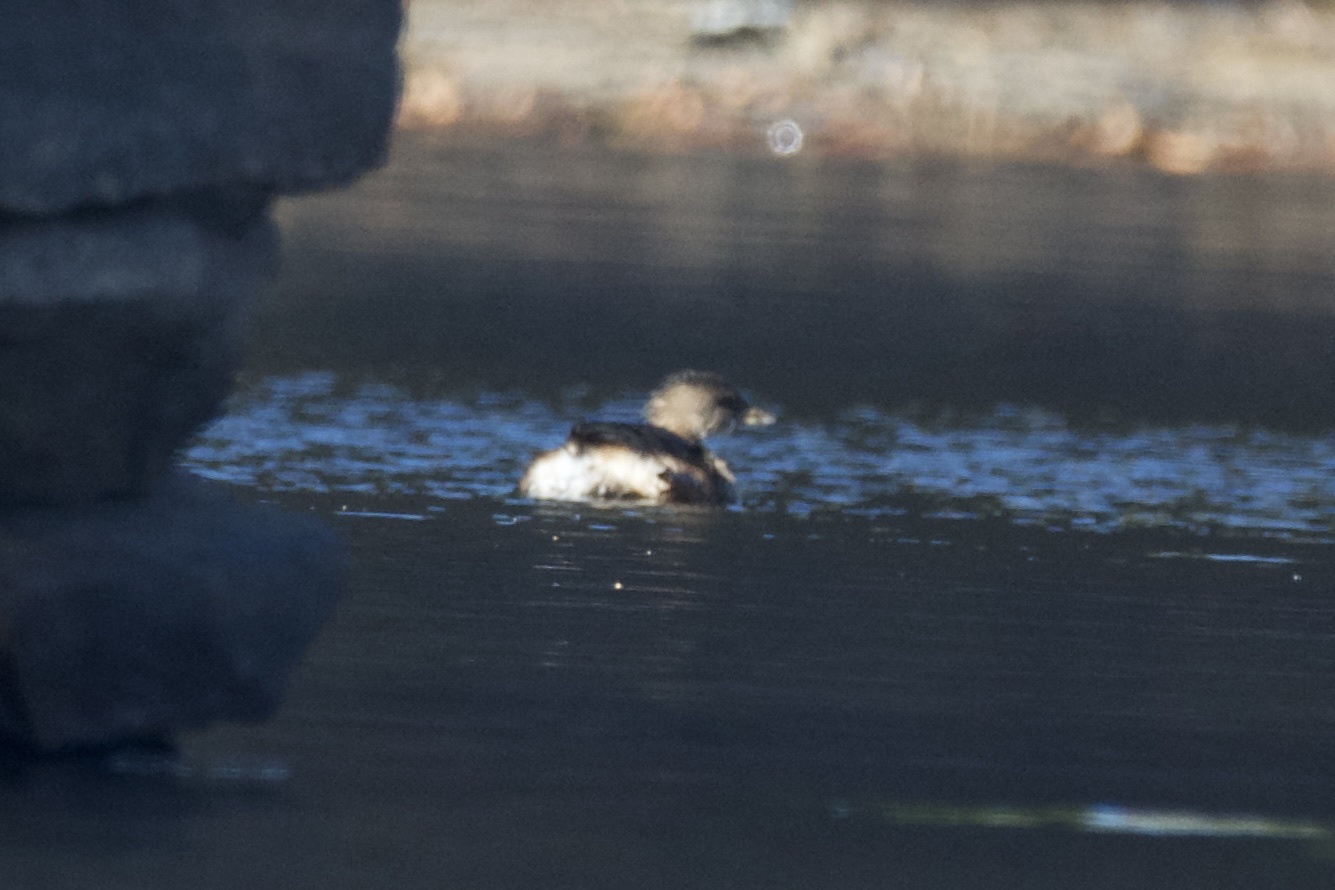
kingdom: Animalia
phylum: Chordata
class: Aves
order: Podicipediformes
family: Podicipedidae
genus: Podilymbus
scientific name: Podilymbus podiceps
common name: Pied-billed grebe
